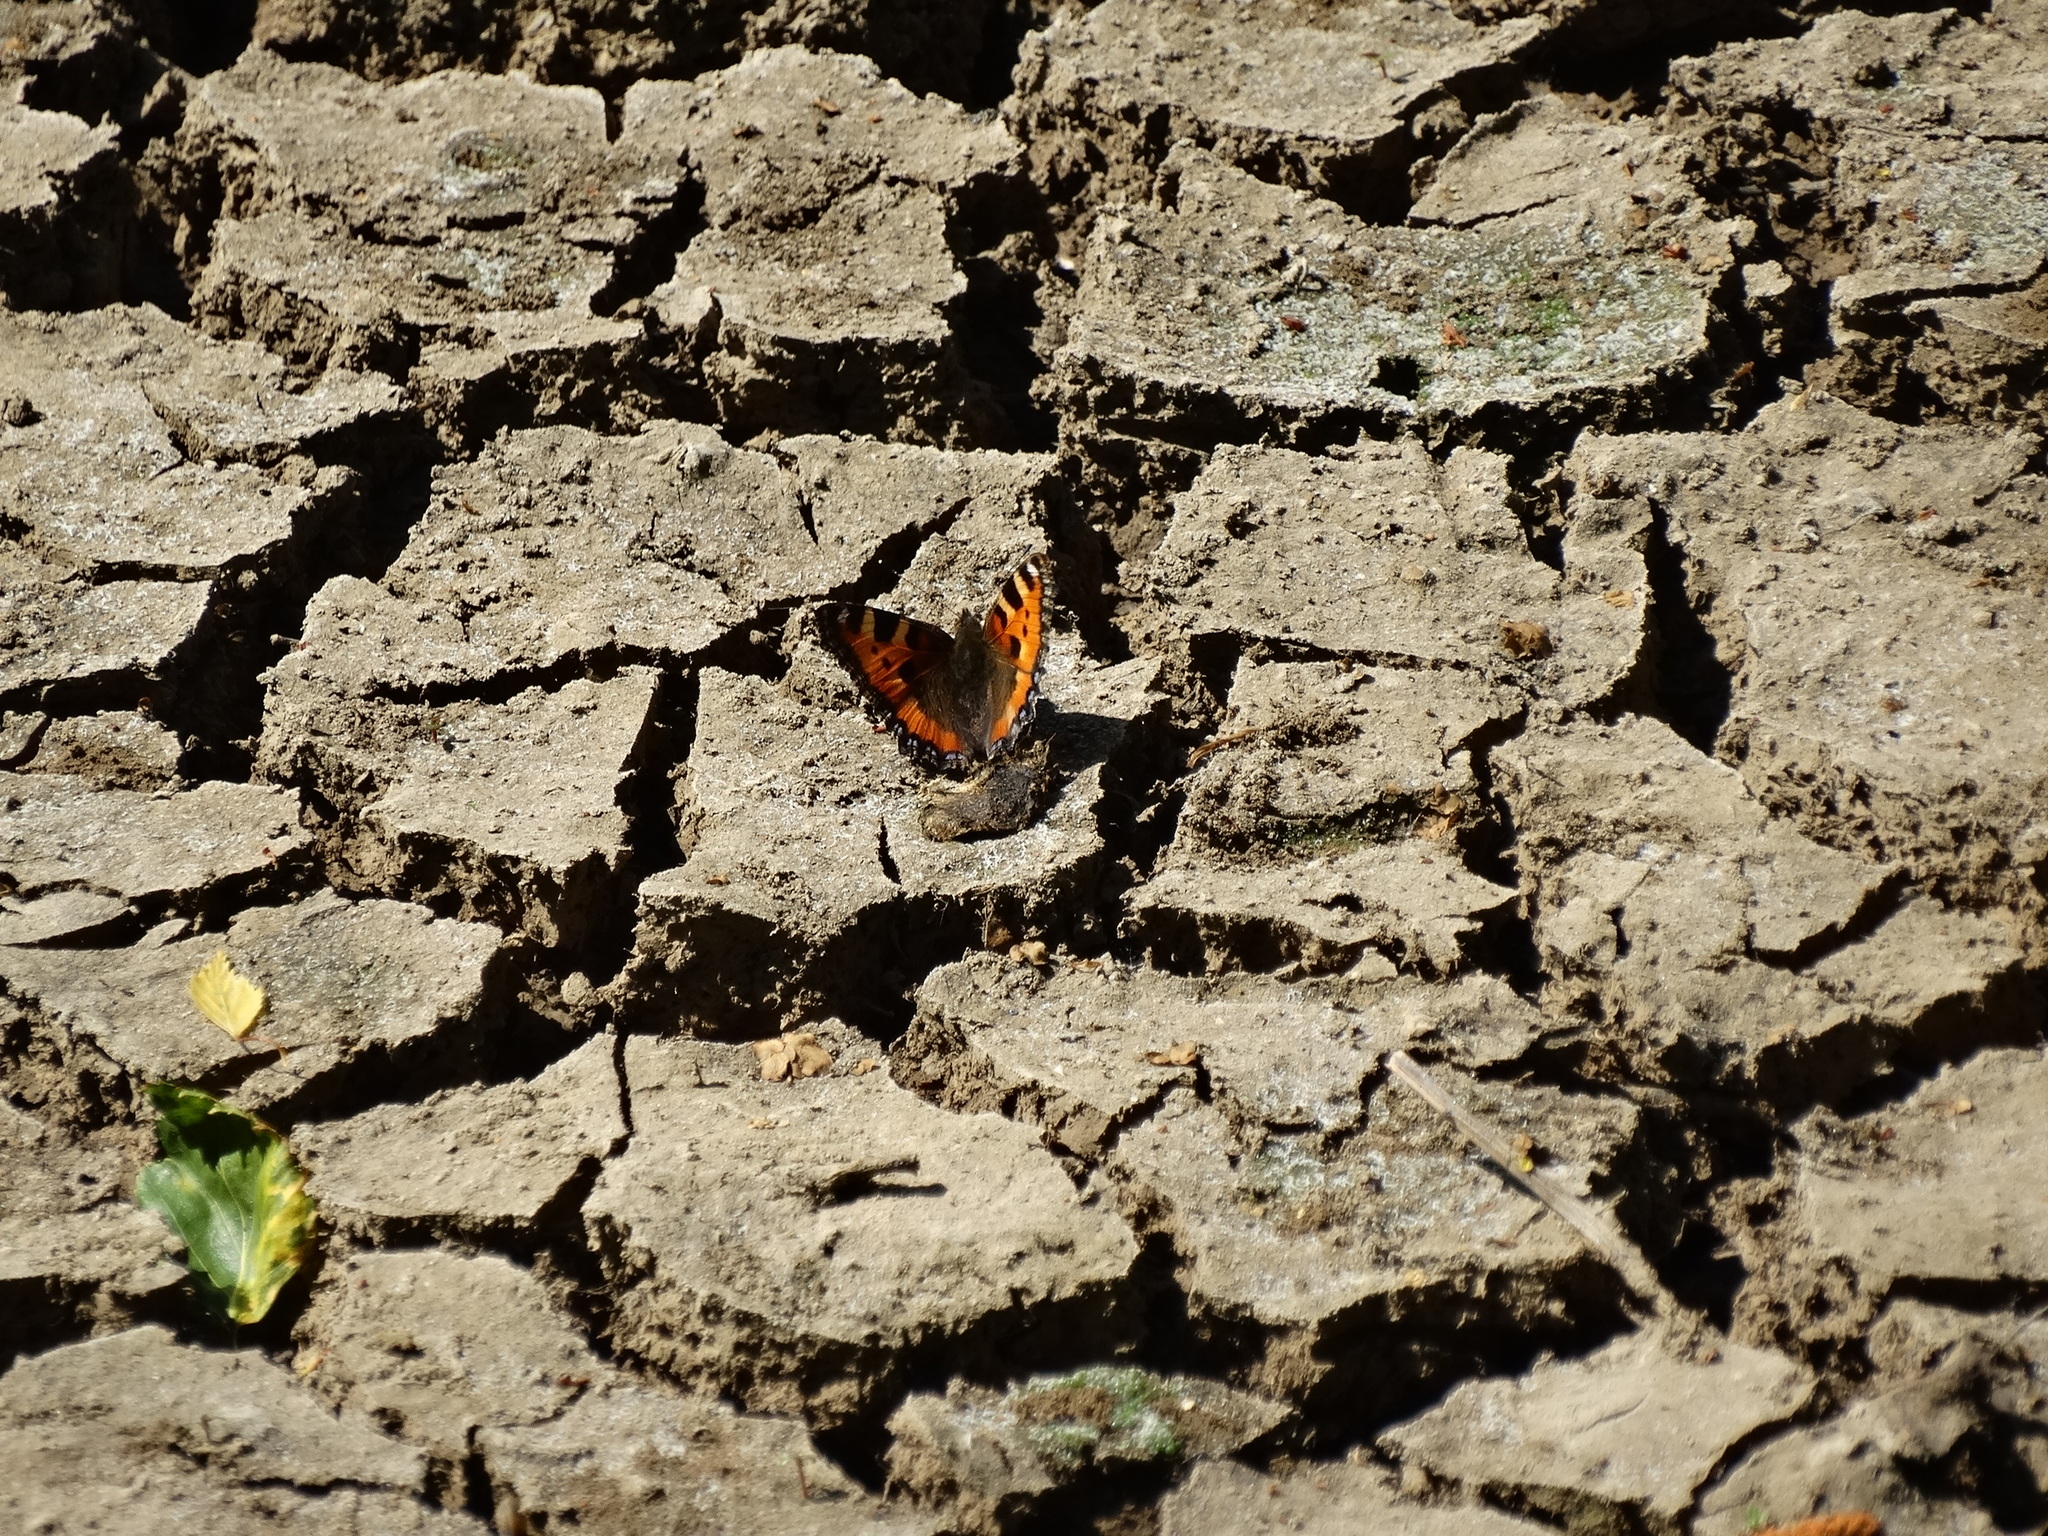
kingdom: Animalia
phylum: Arthropoda
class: Insecta
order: Lepidoptera
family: Nymphalidae
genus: Aglais
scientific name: Aglais urticae
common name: Small tortoiseshell
